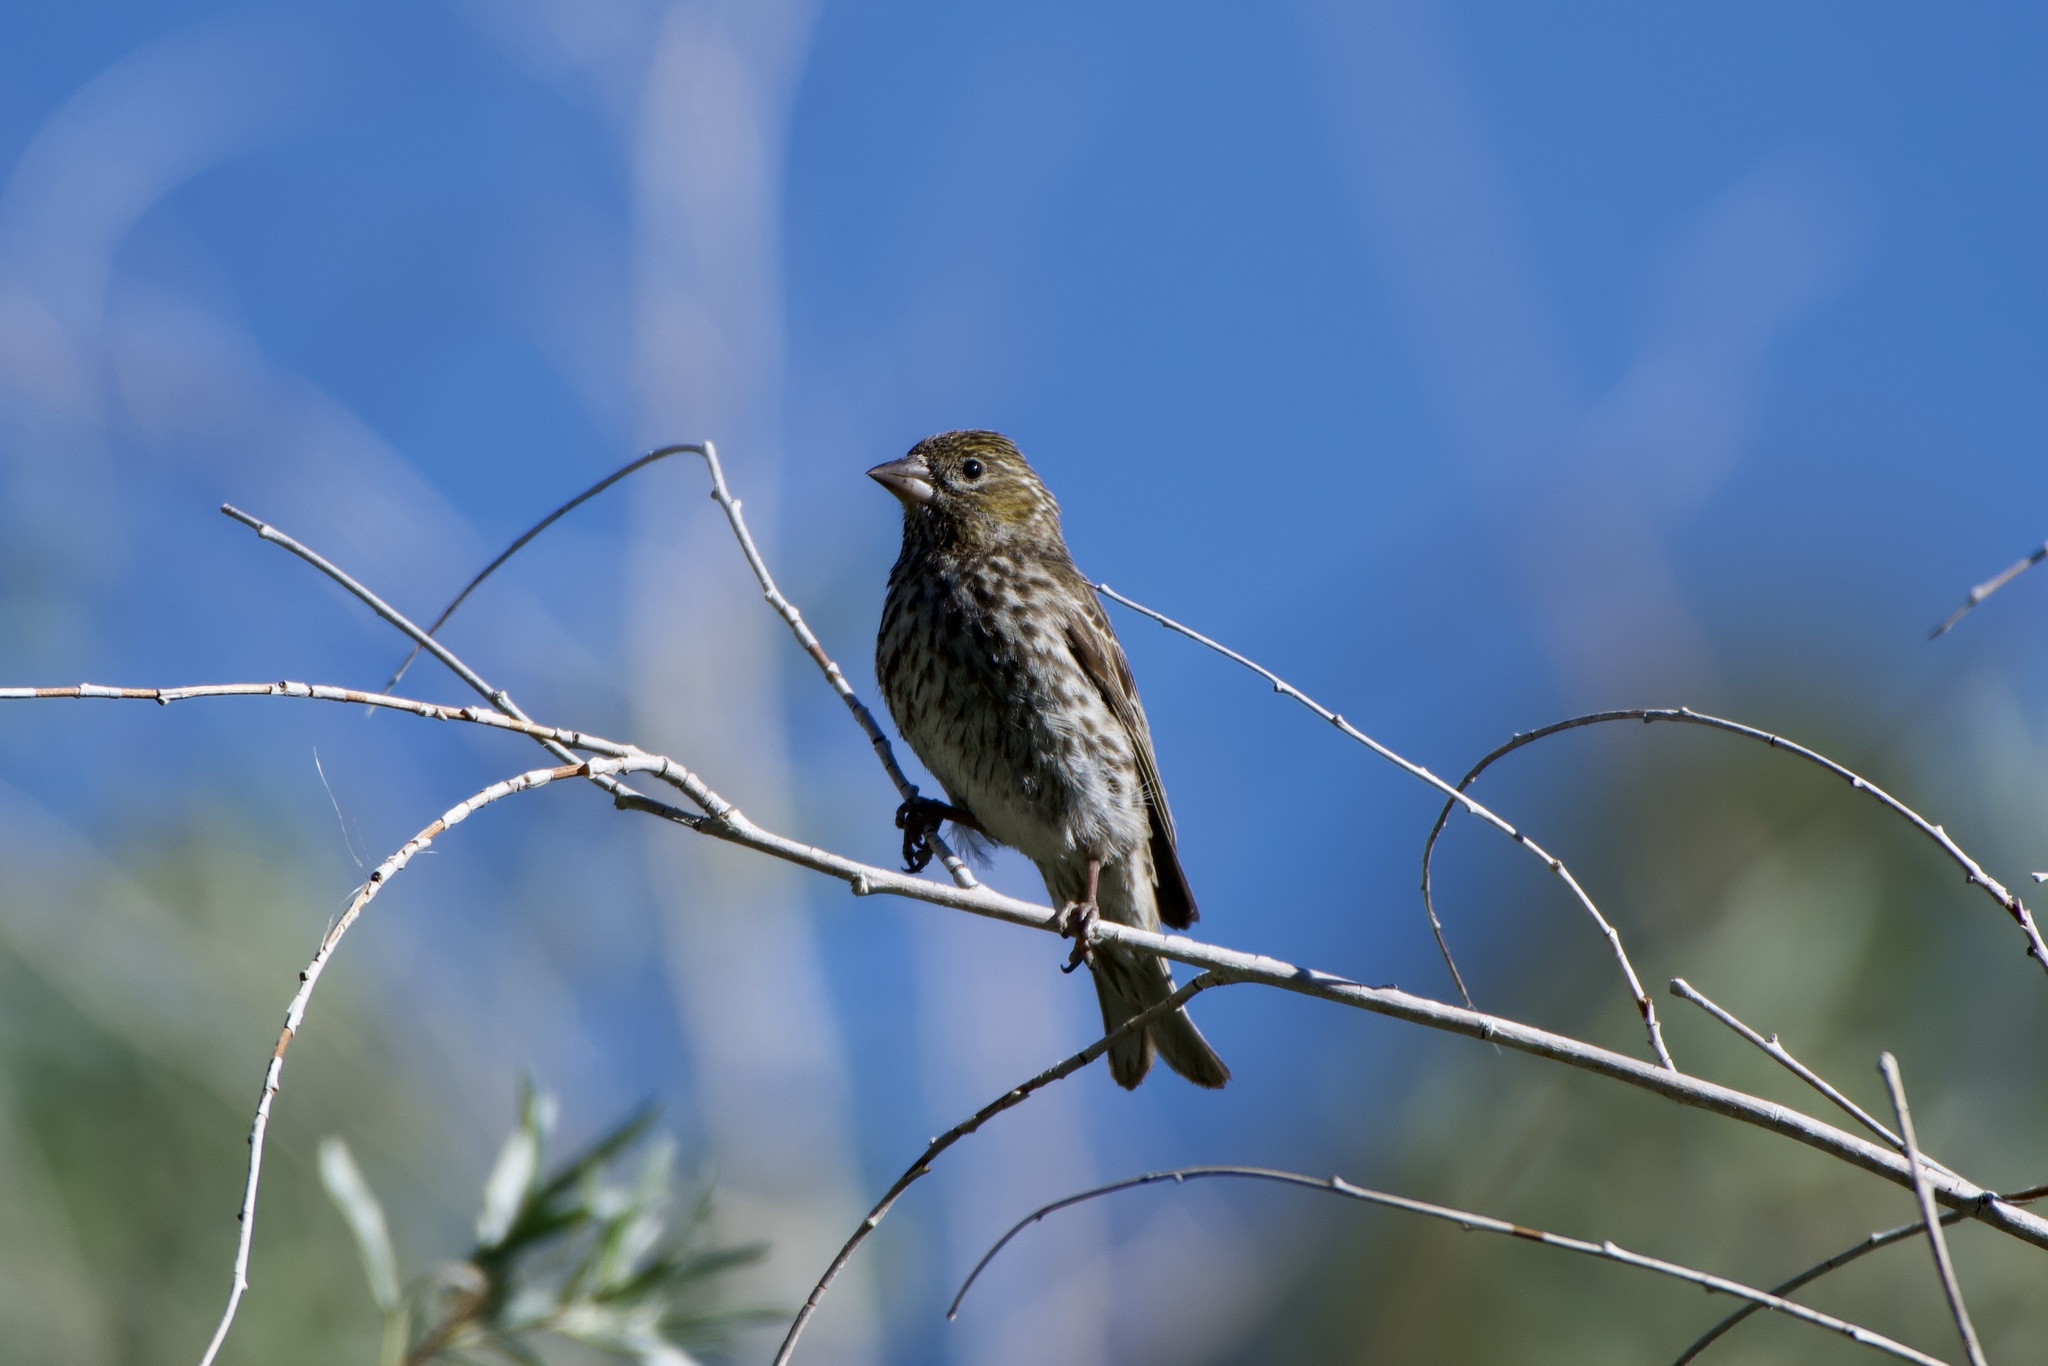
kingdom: Animalia
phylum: Chordata
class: Aves
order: Passeriformes
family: Fringillidae
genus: Haemorhous
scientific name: Haemorhous cassinii
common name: Cassin's finch
